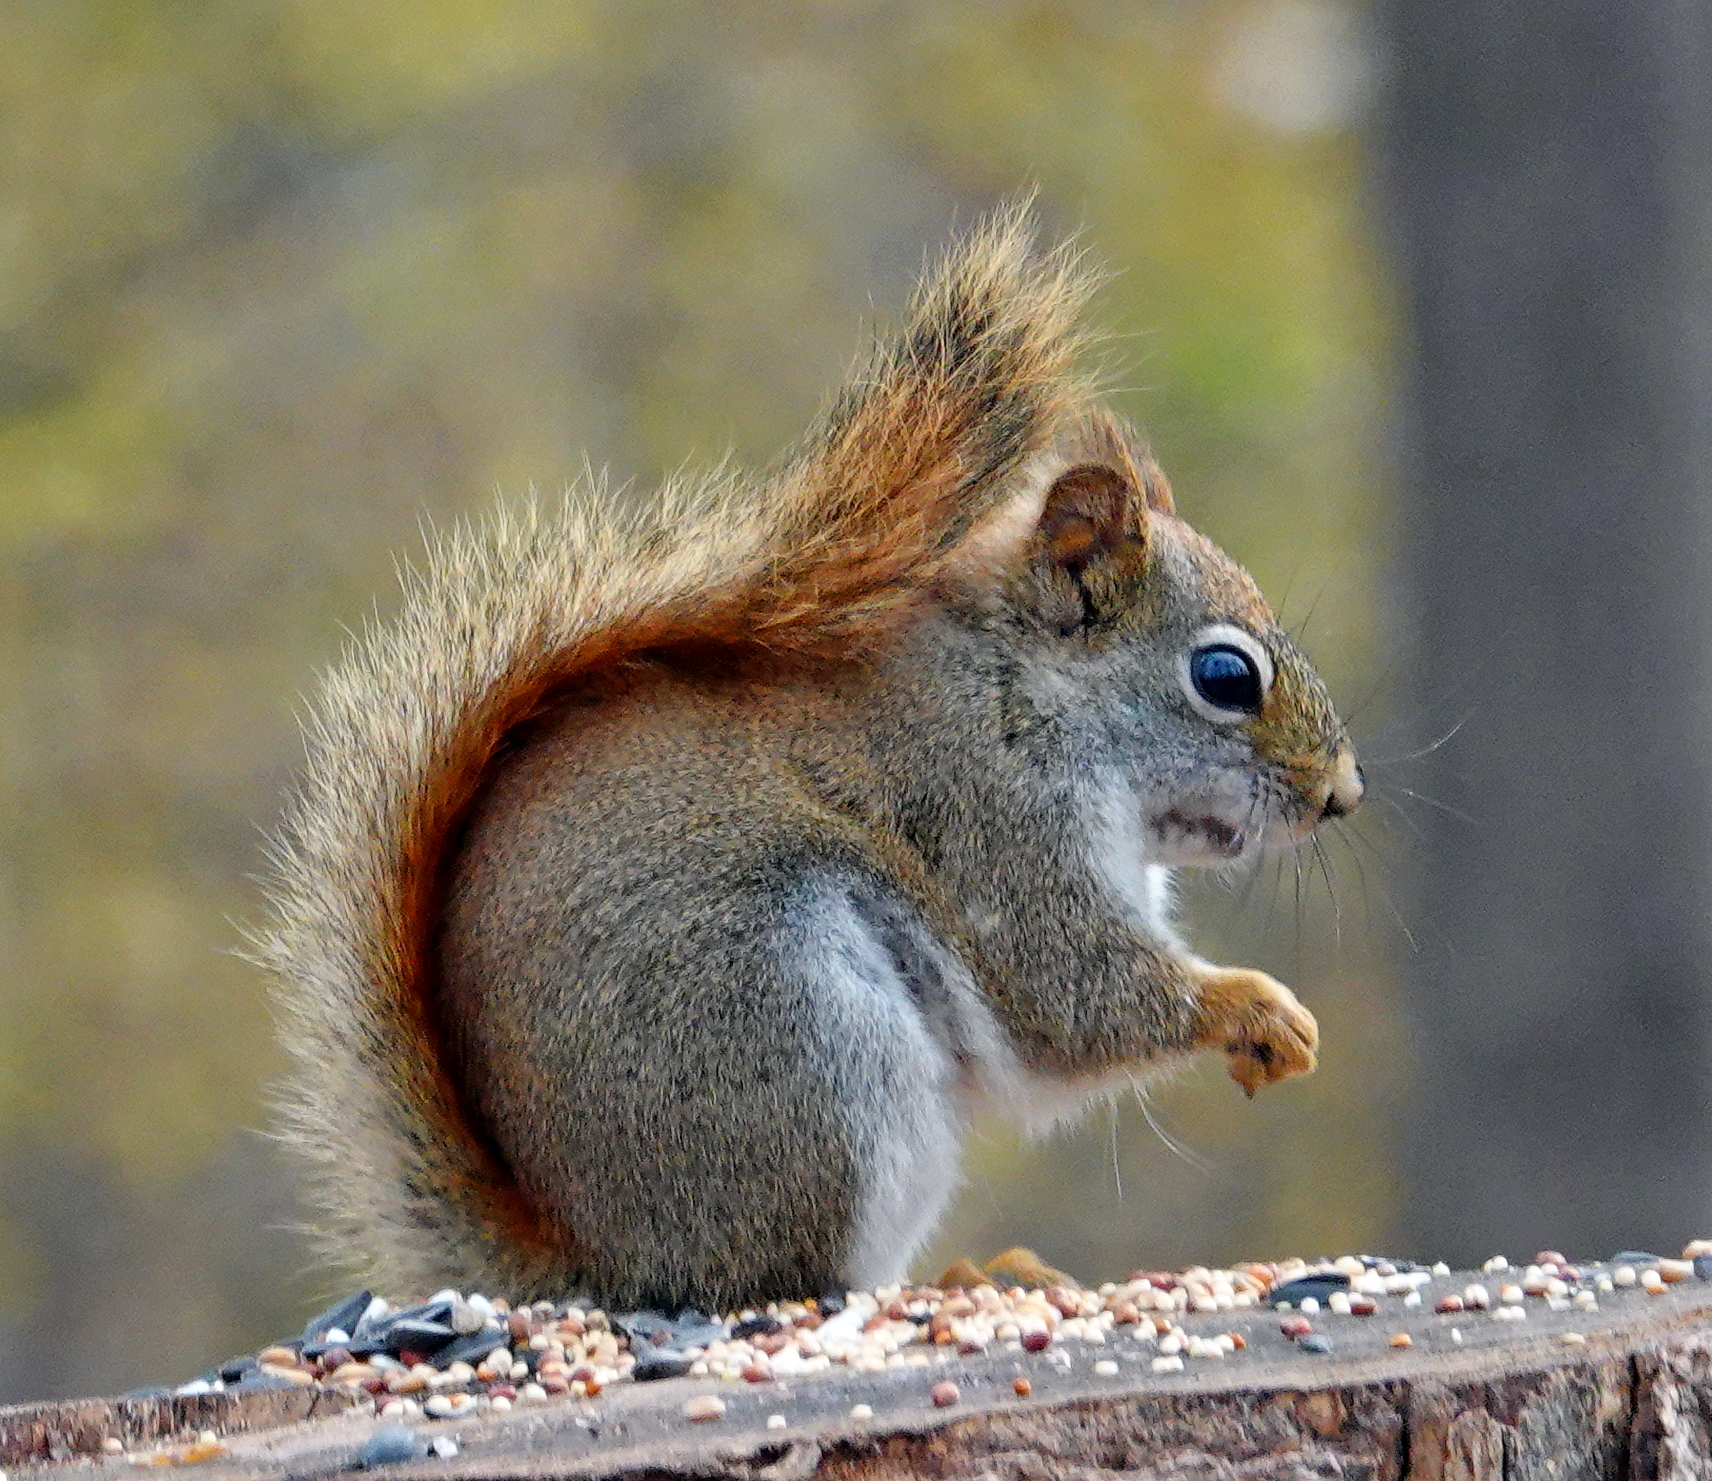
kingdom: Animalia
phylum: Chordata
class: Mammalia
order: Rodentia
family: Sciuridae
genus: Tamiasciurus
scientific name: Tamiasciurus hudsonicus
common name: Red squirrel
